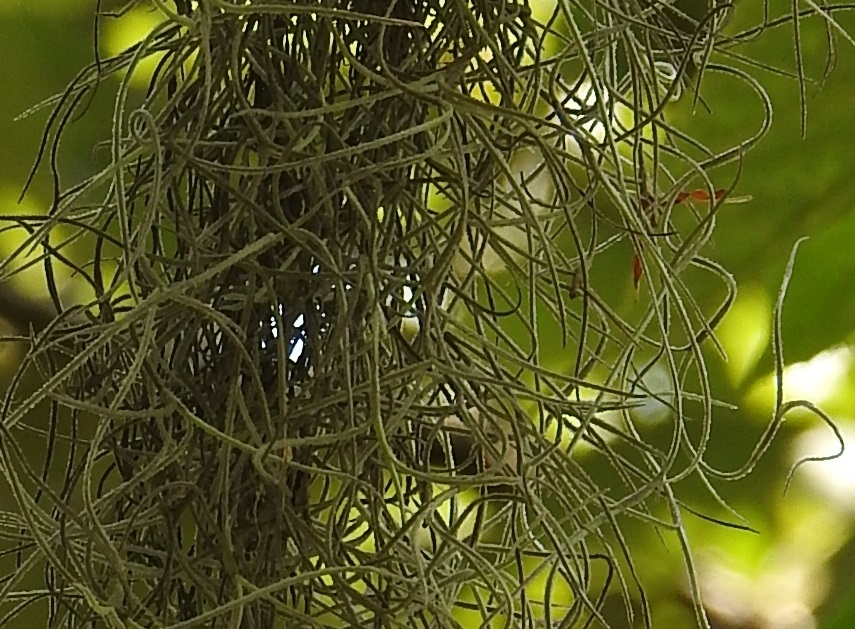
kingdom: Plantae
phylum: Tracheophyta
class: Liliopsida
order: Poales
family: Bromeliaceae
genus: Tillandsia
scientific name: Tillandsia usneoides
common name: Spanish moss
